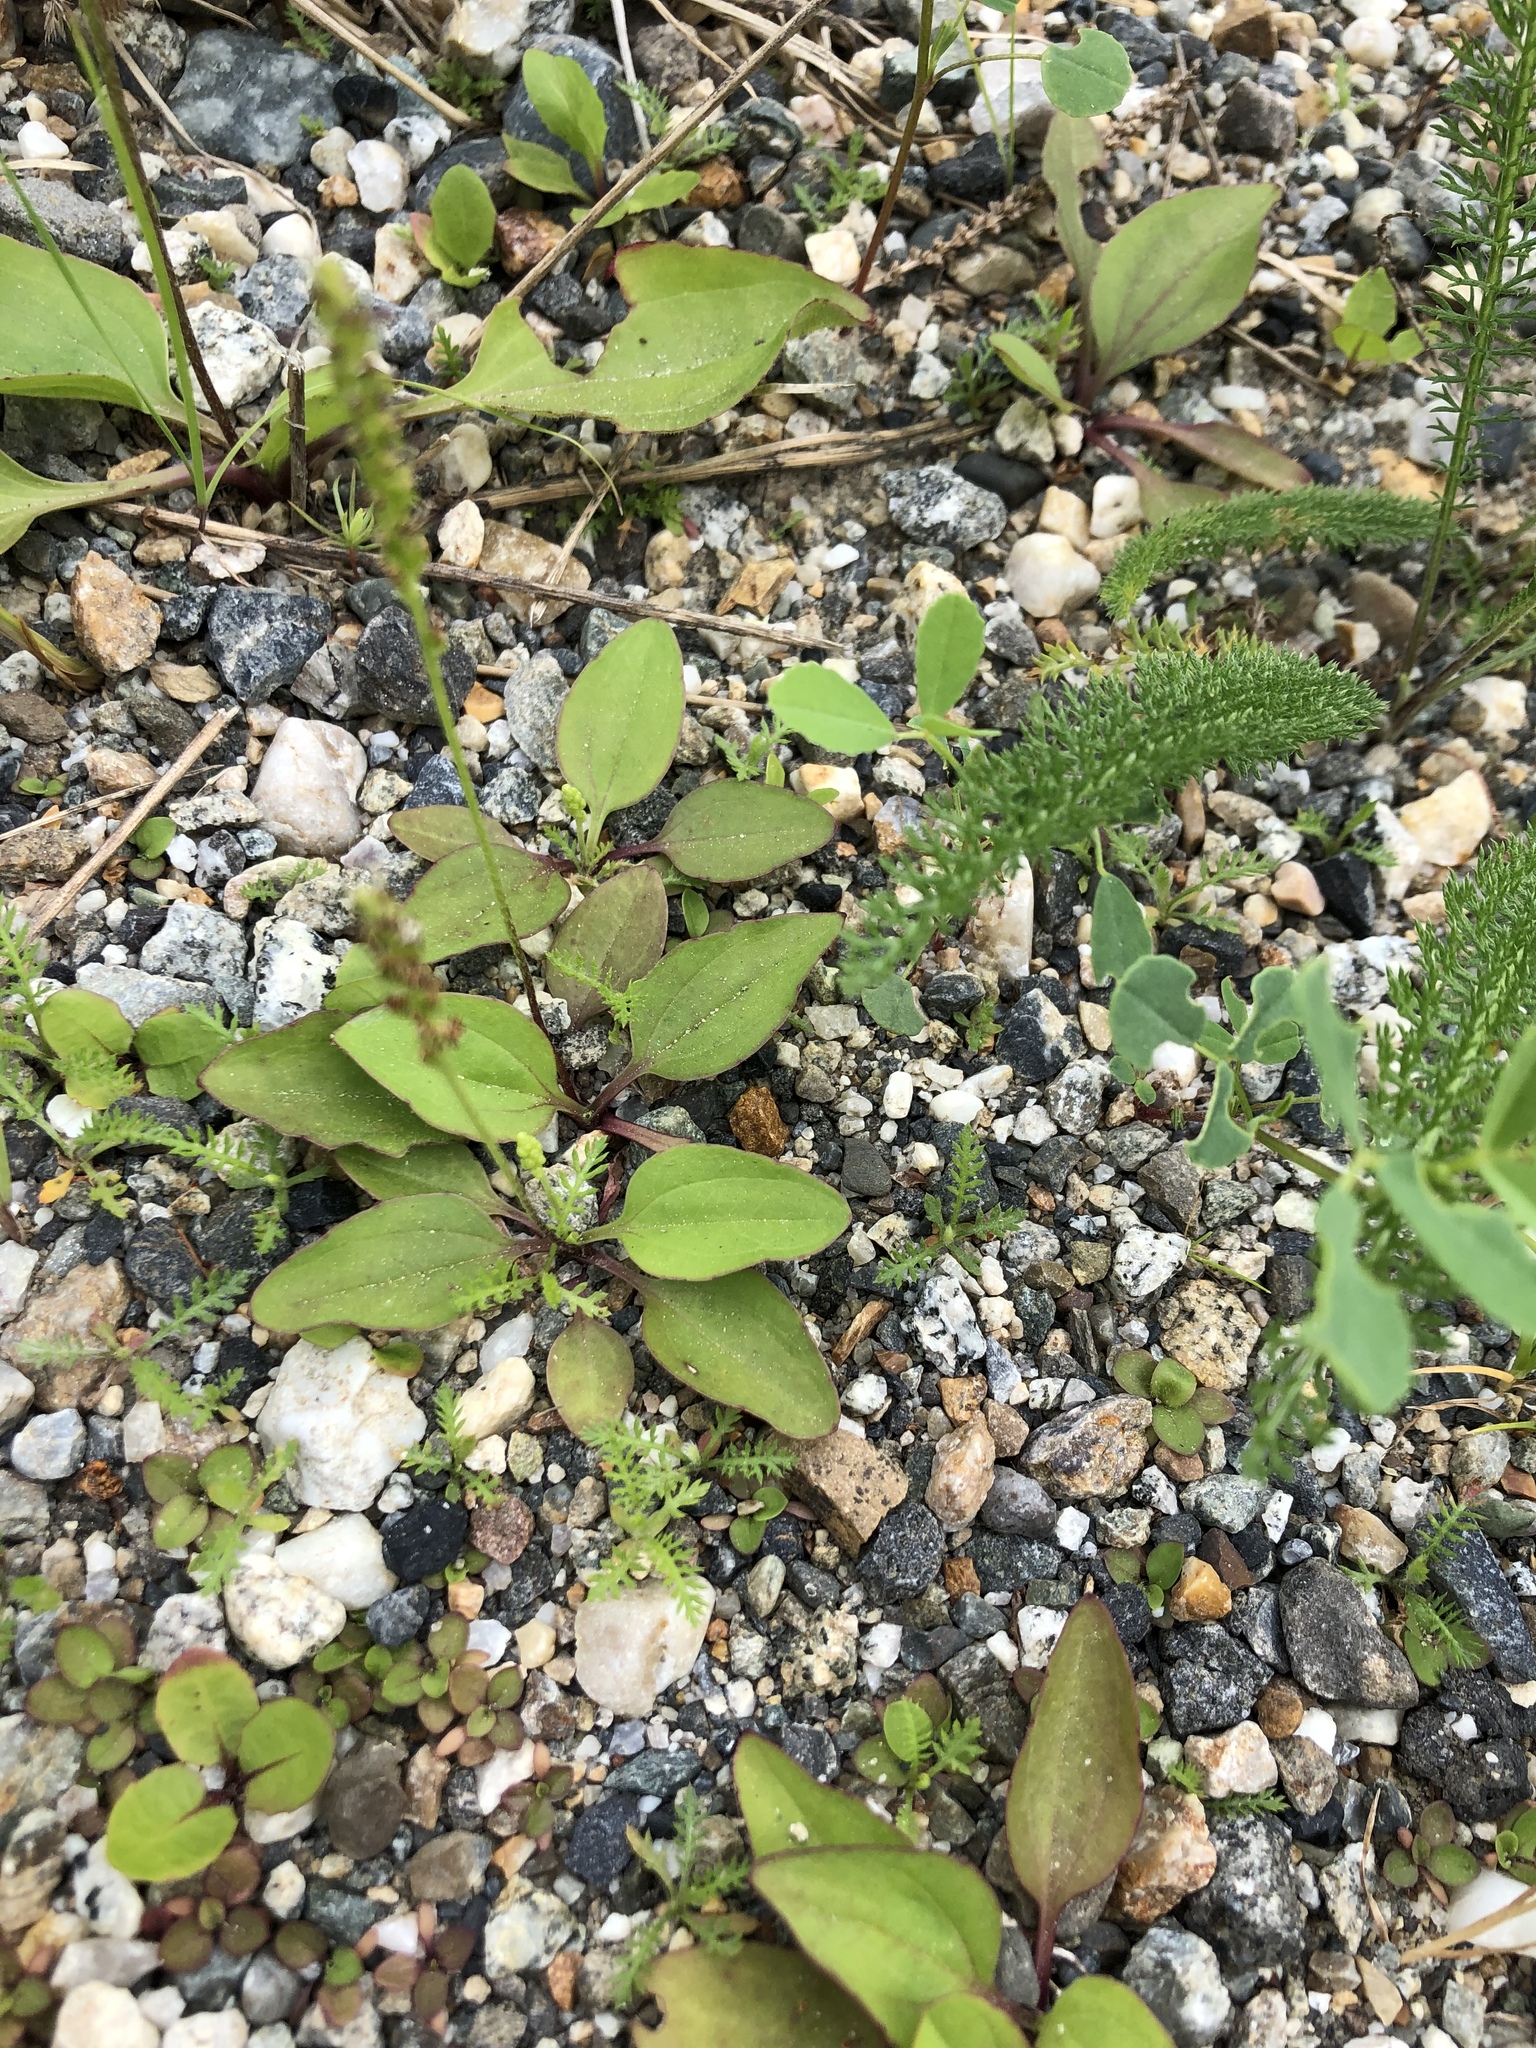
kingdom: Plantae
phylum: Tracheophyta
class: Magnoliopsida
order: Lamiales
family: Plantaginaceae
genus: Plantago
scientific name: Plantago major
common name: Common plantain
